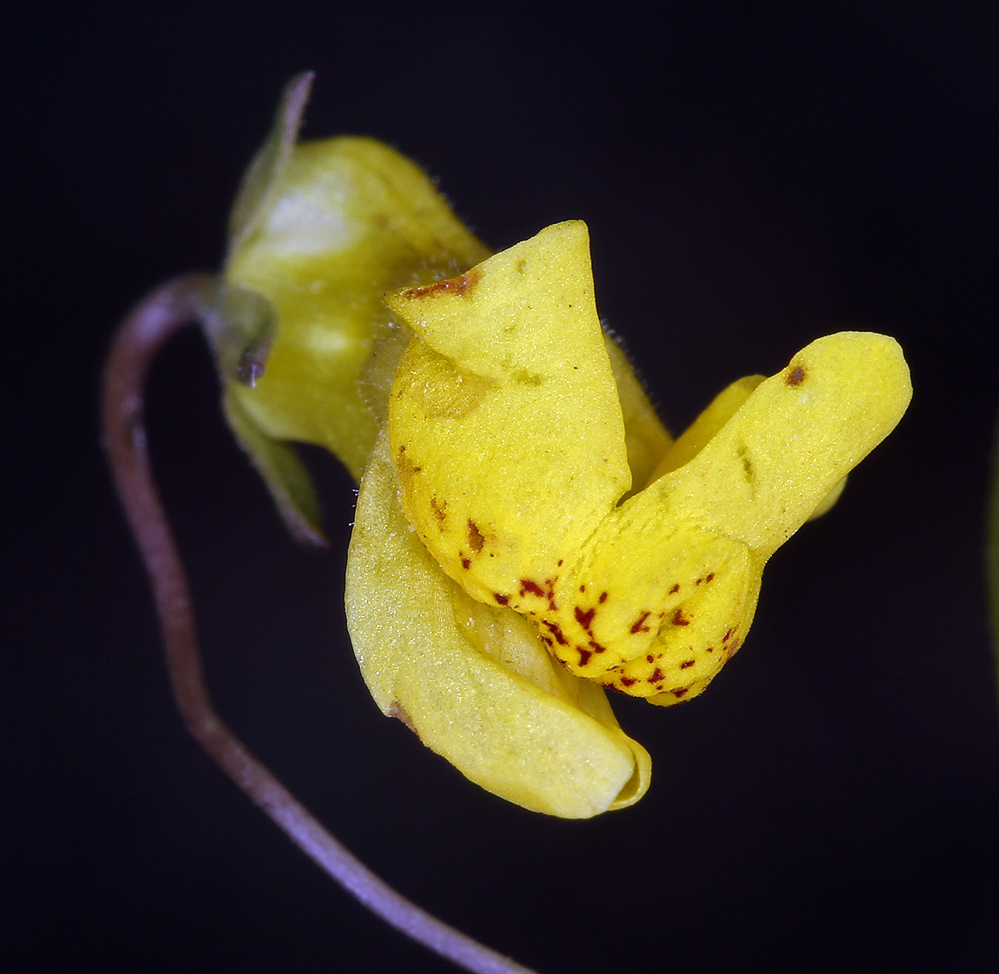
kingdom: Plantae
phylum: Tracheophyta
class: Magnoliopsida
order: Lamiales
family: Plantaginaceae
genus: Neogaerrhinum
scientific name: Neogaerrhinum filipes
